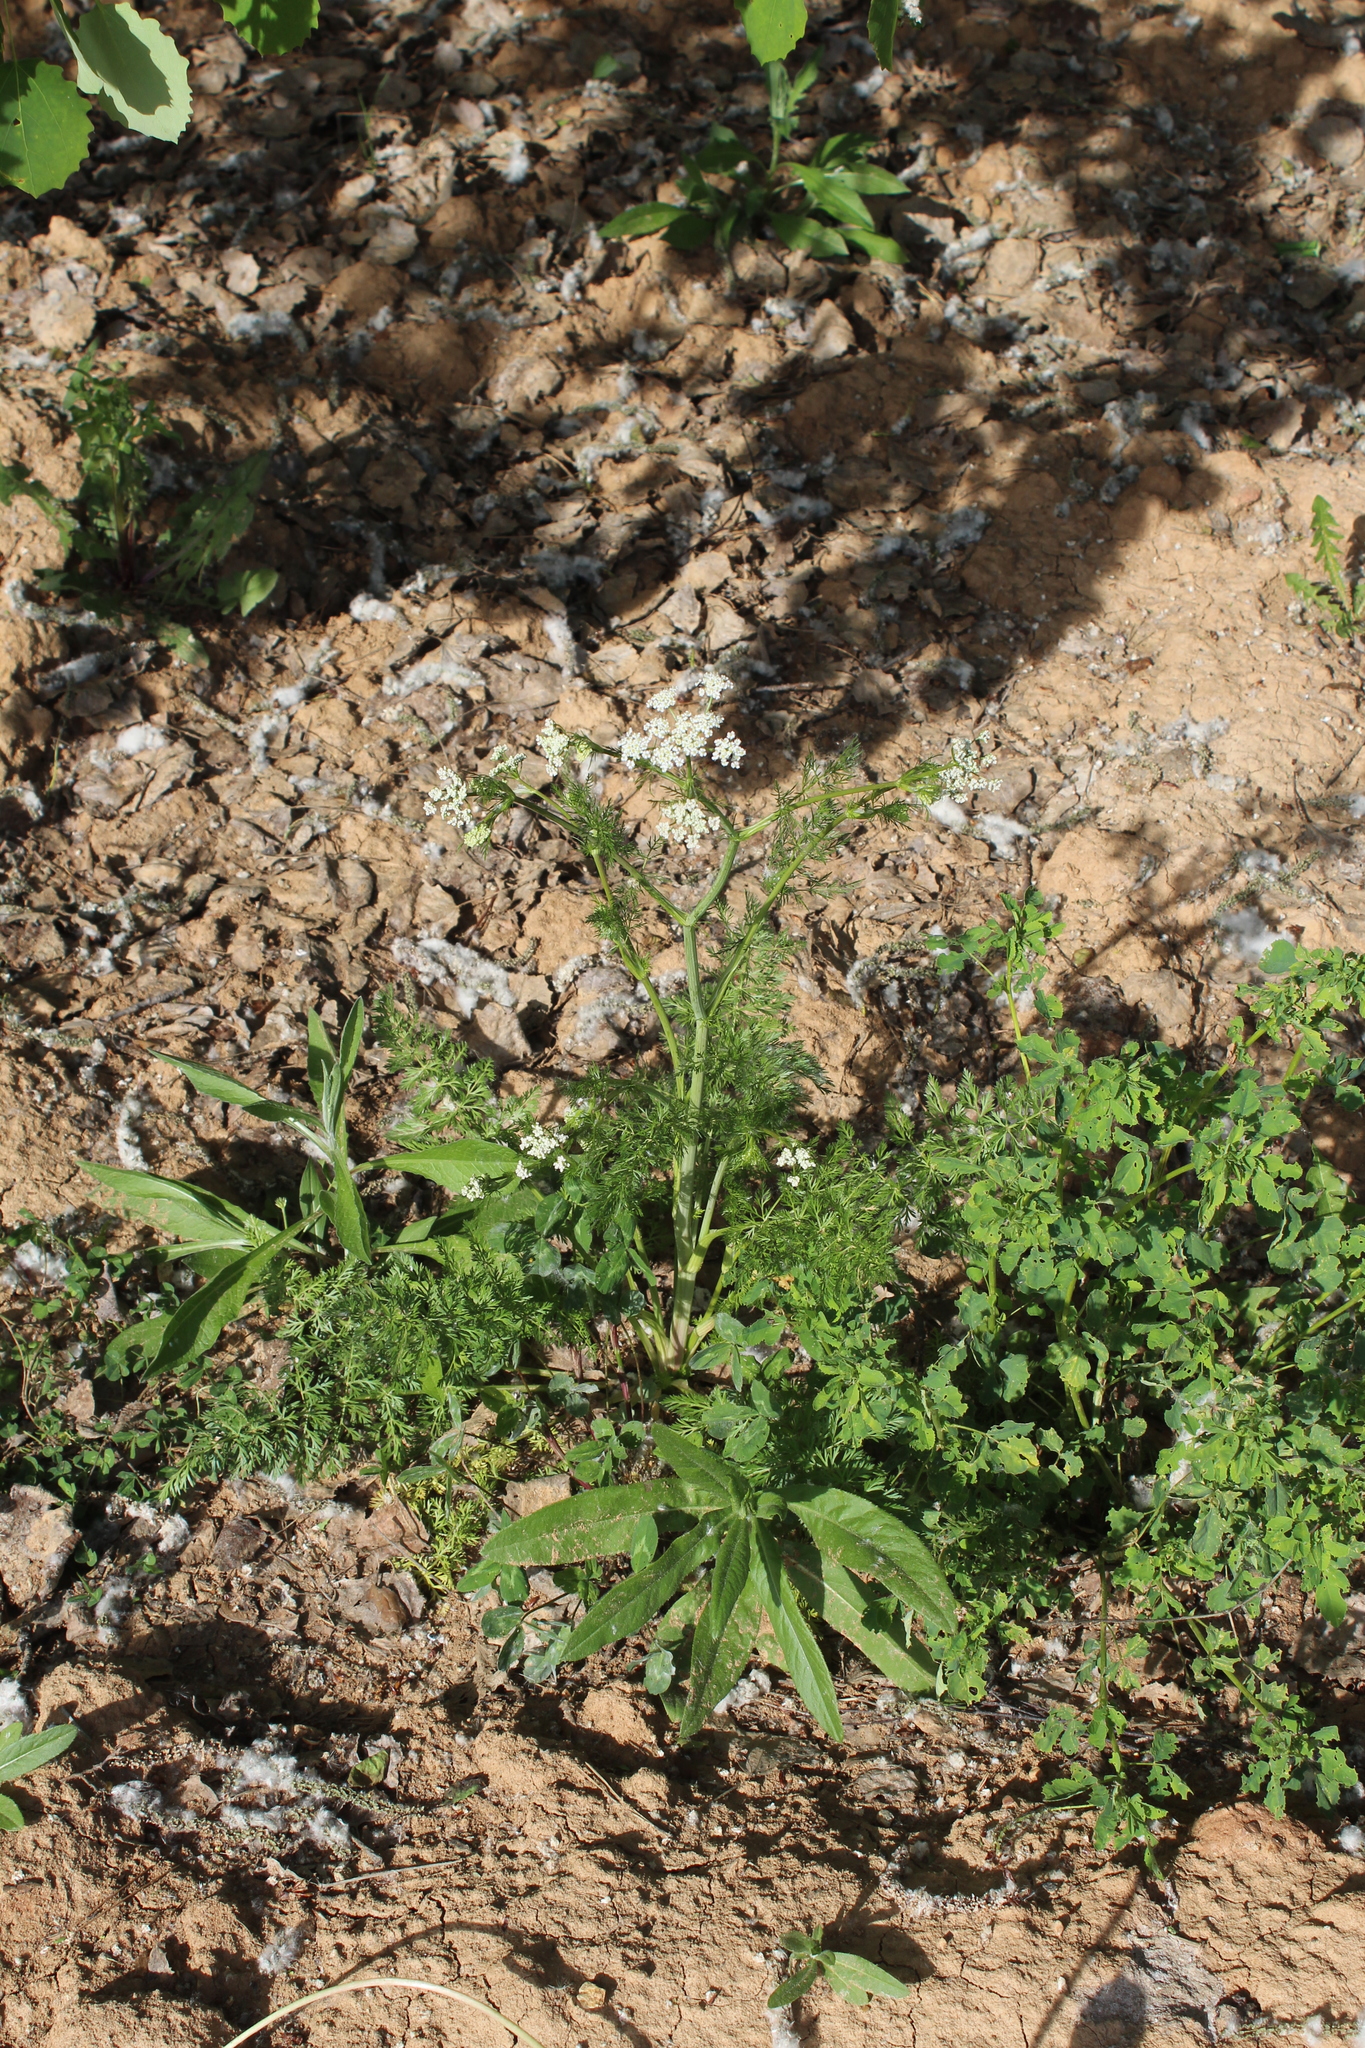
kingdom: Plantae
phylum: Tracheophyta
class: Magnoliopsida
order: Apiales
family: Apiaceae
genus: Carum
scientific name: Carum carvi
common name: Caraway
